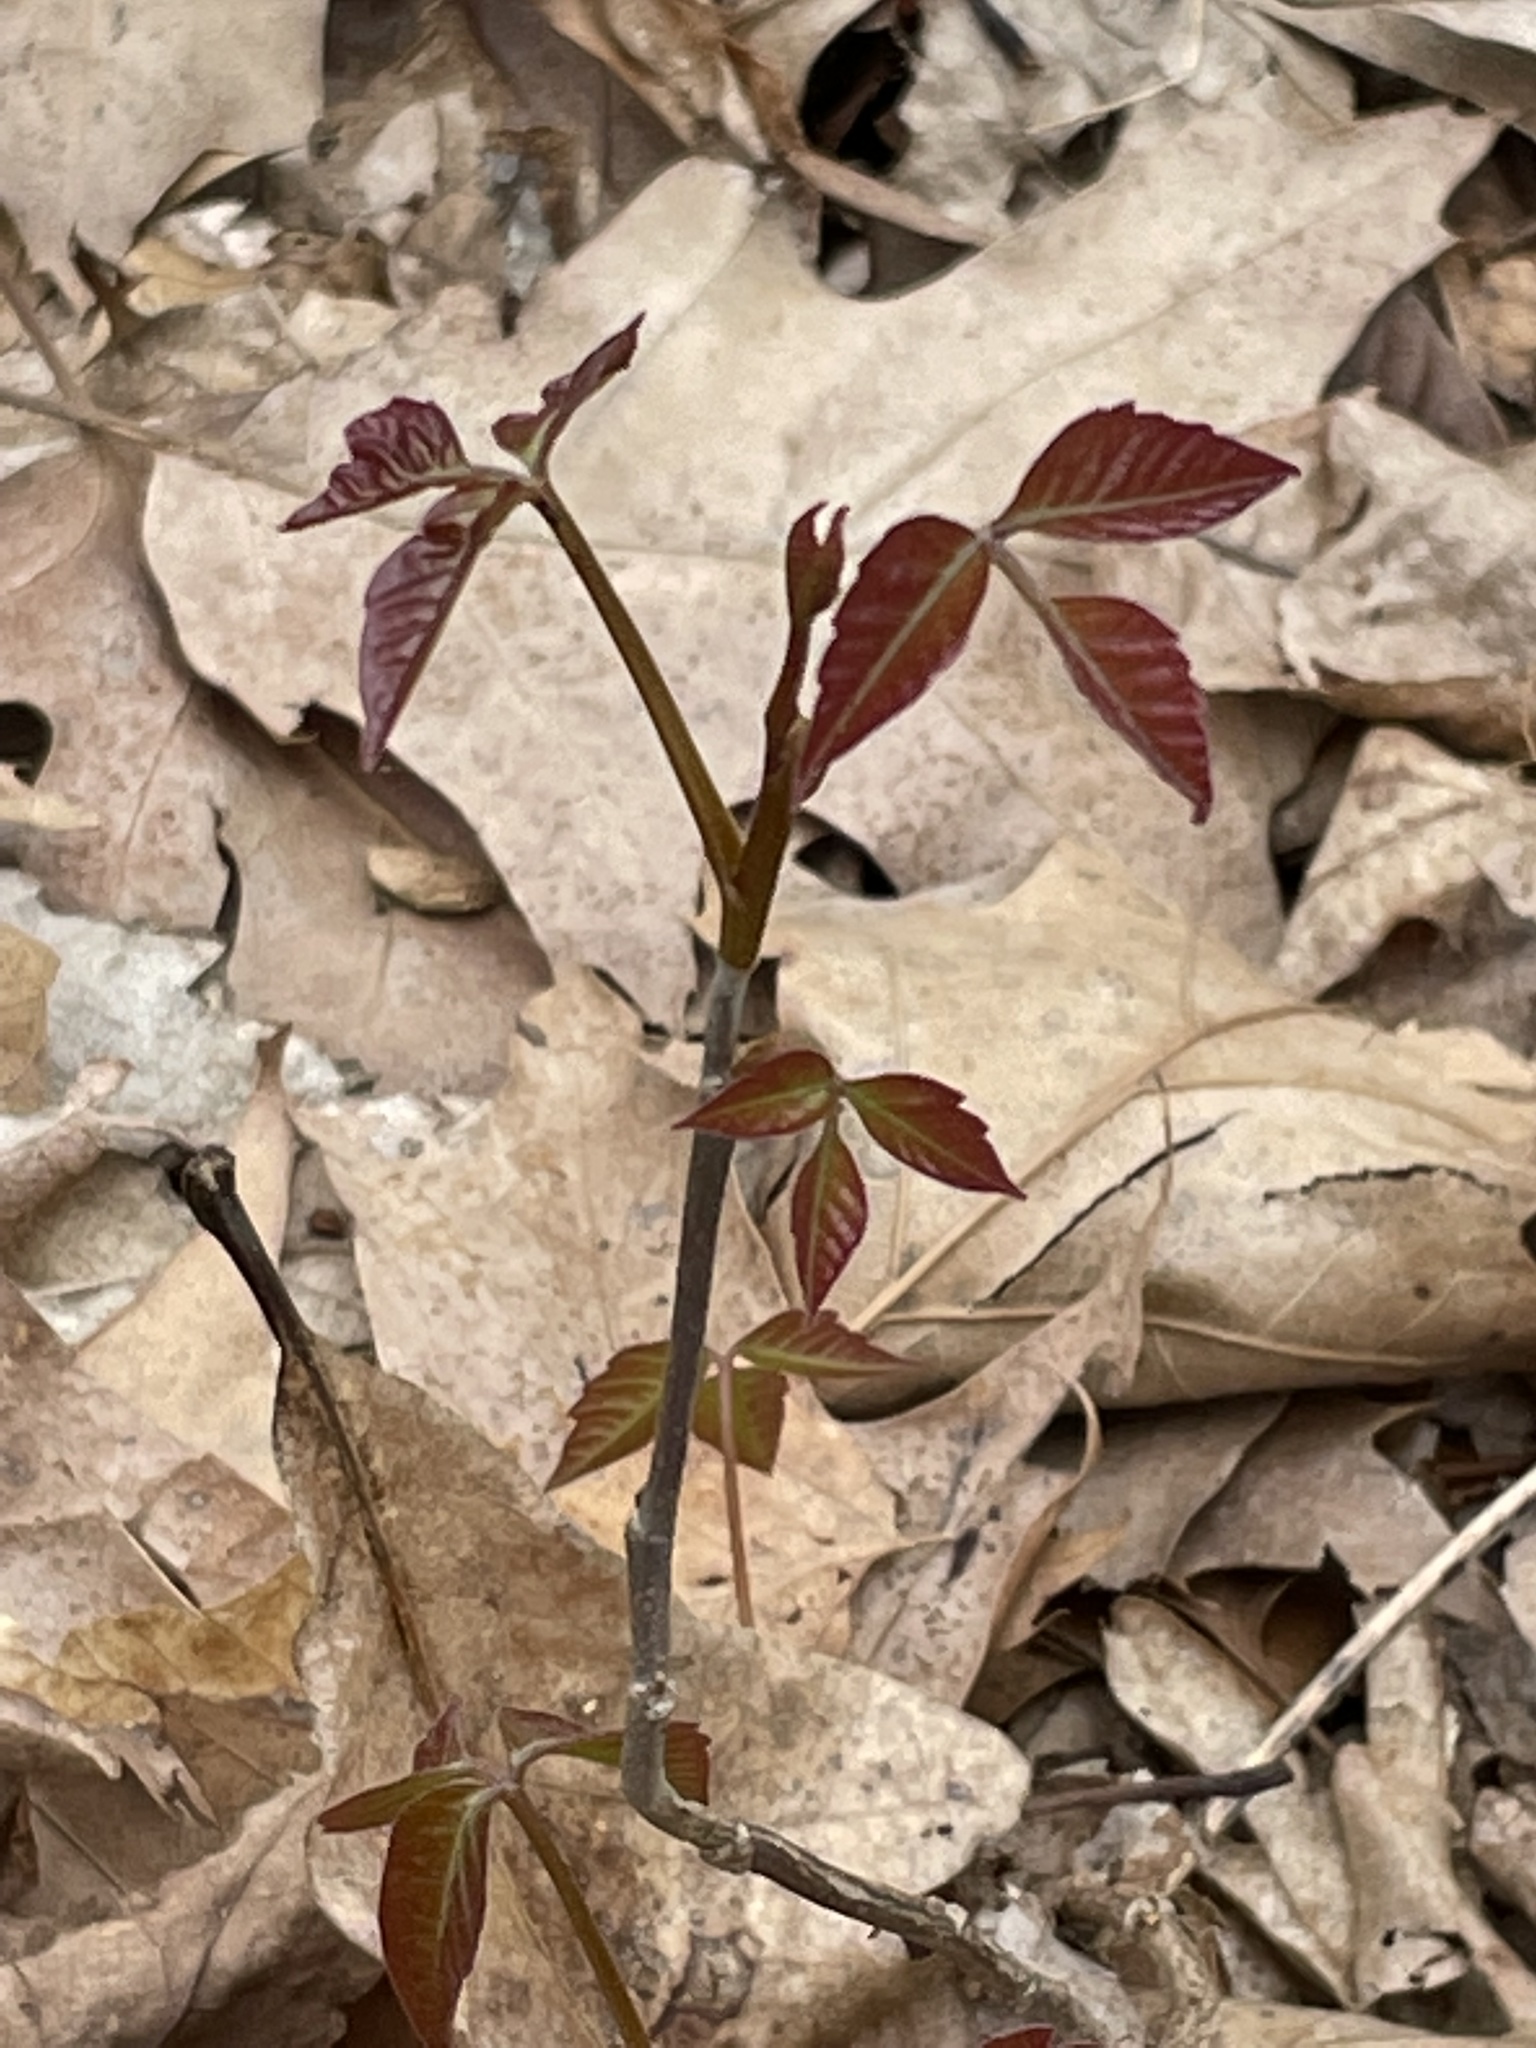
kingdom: Plantae
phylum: Tracheophyta
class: Magnoliopsida
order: Sapindales
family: Anacardiaceae
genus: Toxicodendron
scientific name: Toxicodendron radicans
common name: Poison ivy
